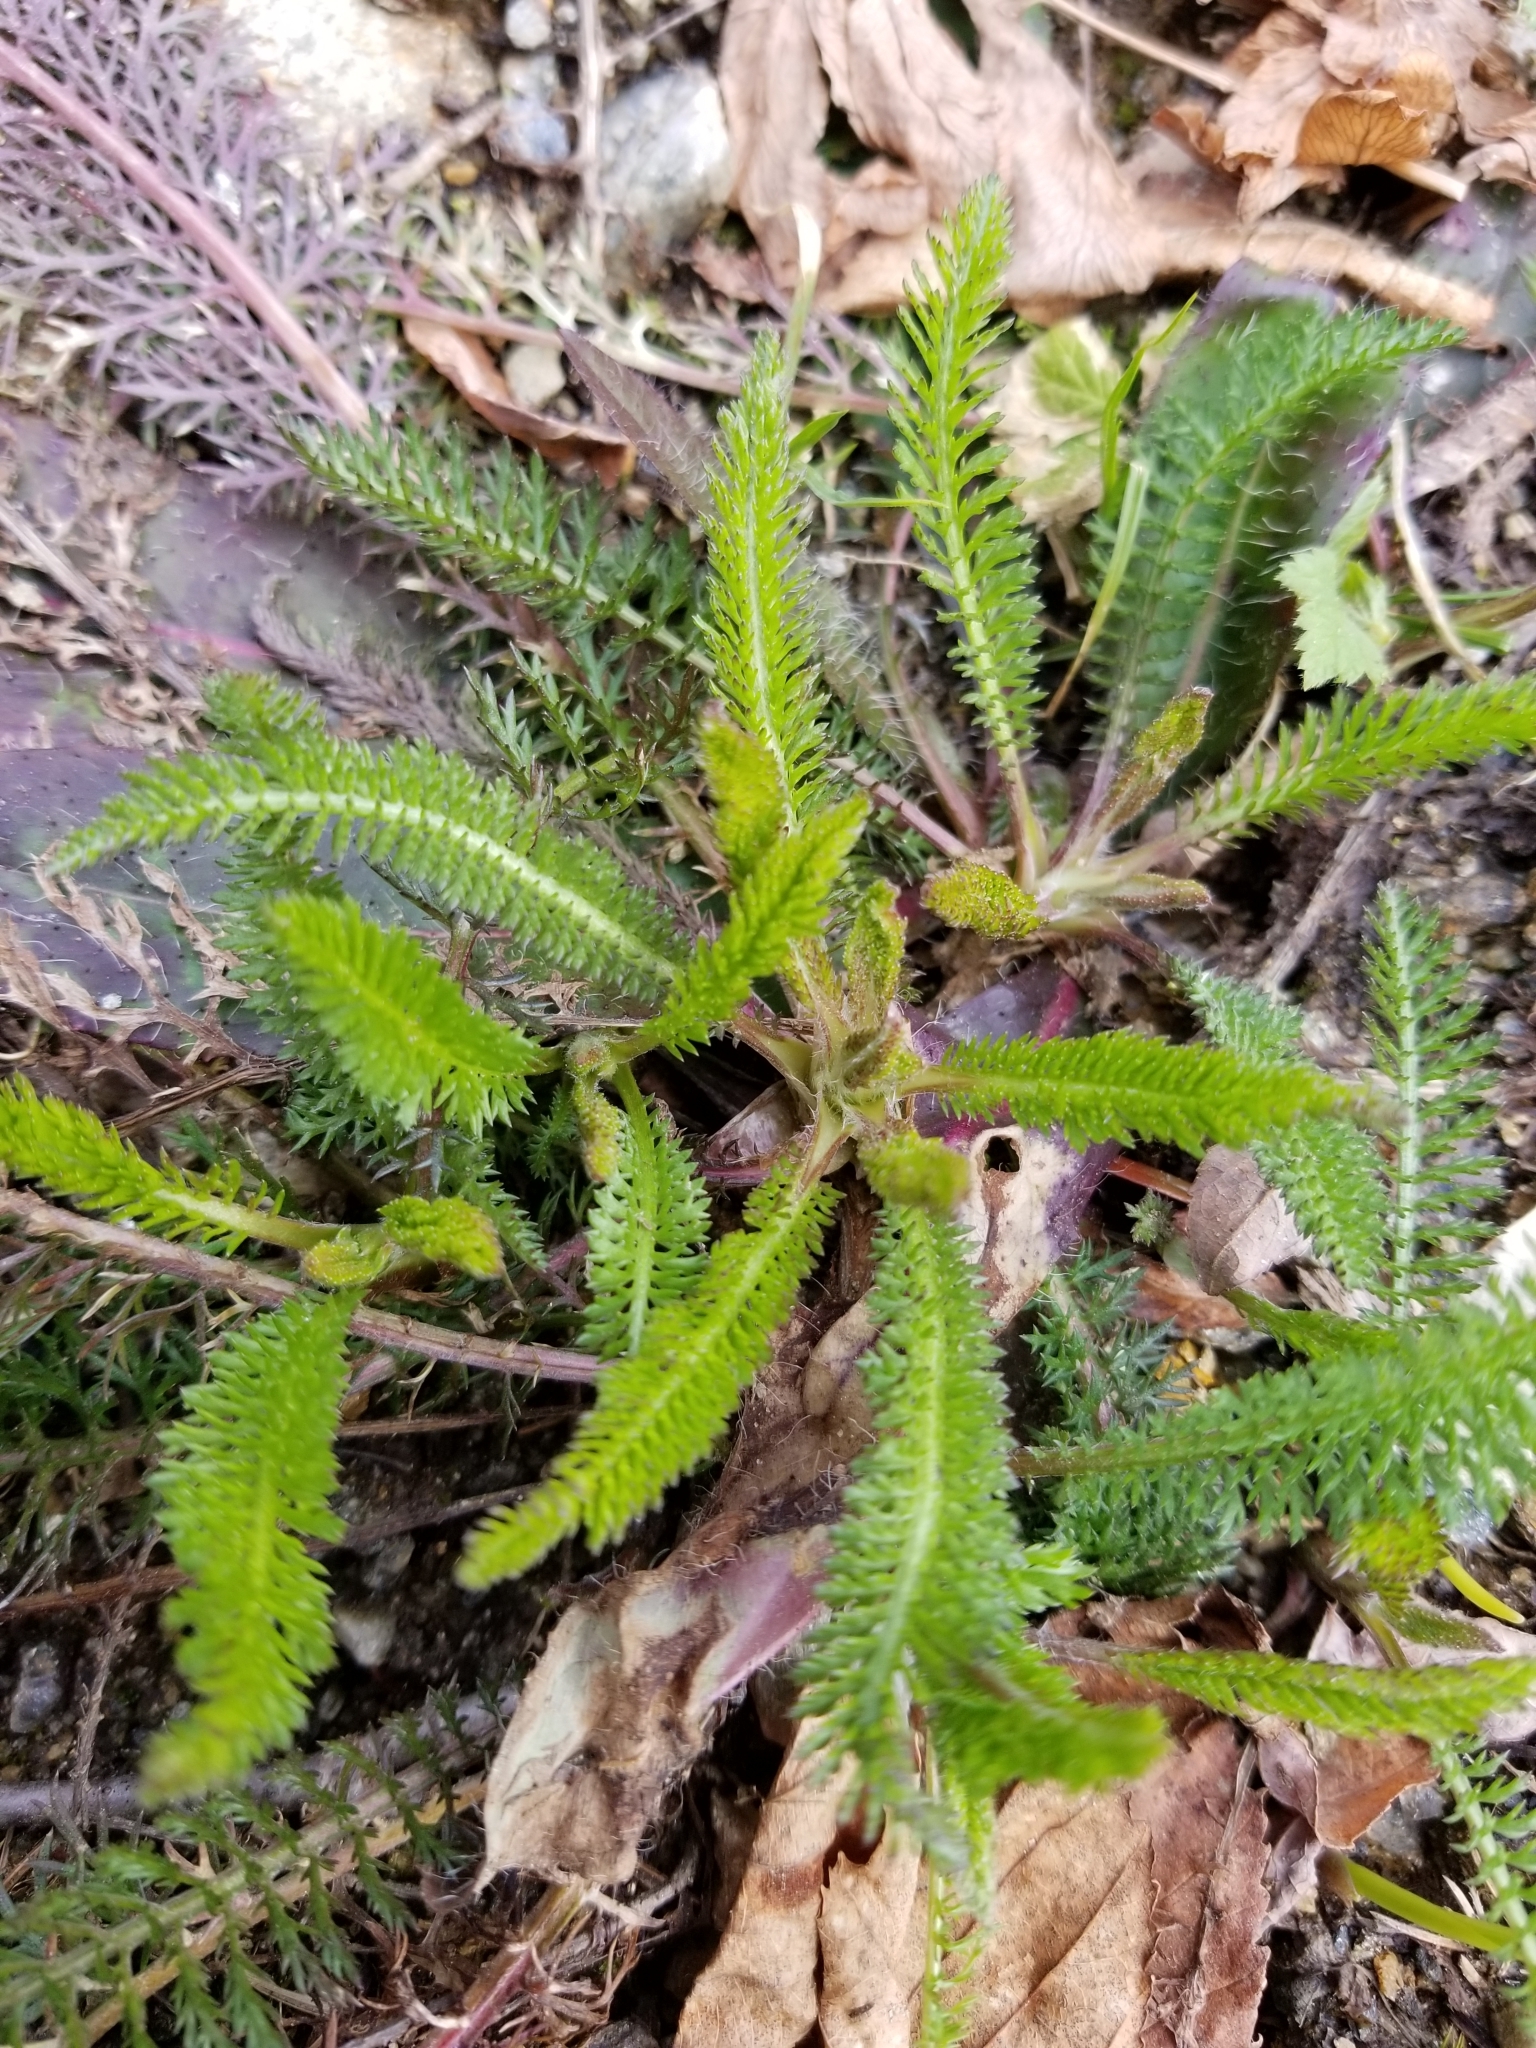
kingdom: Plantae
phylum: Tracheophyta
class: Magnoliopsida
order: Asterales
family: Asteraceae
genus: Achillea
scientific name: Achillea millefolium
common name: Yarrow
